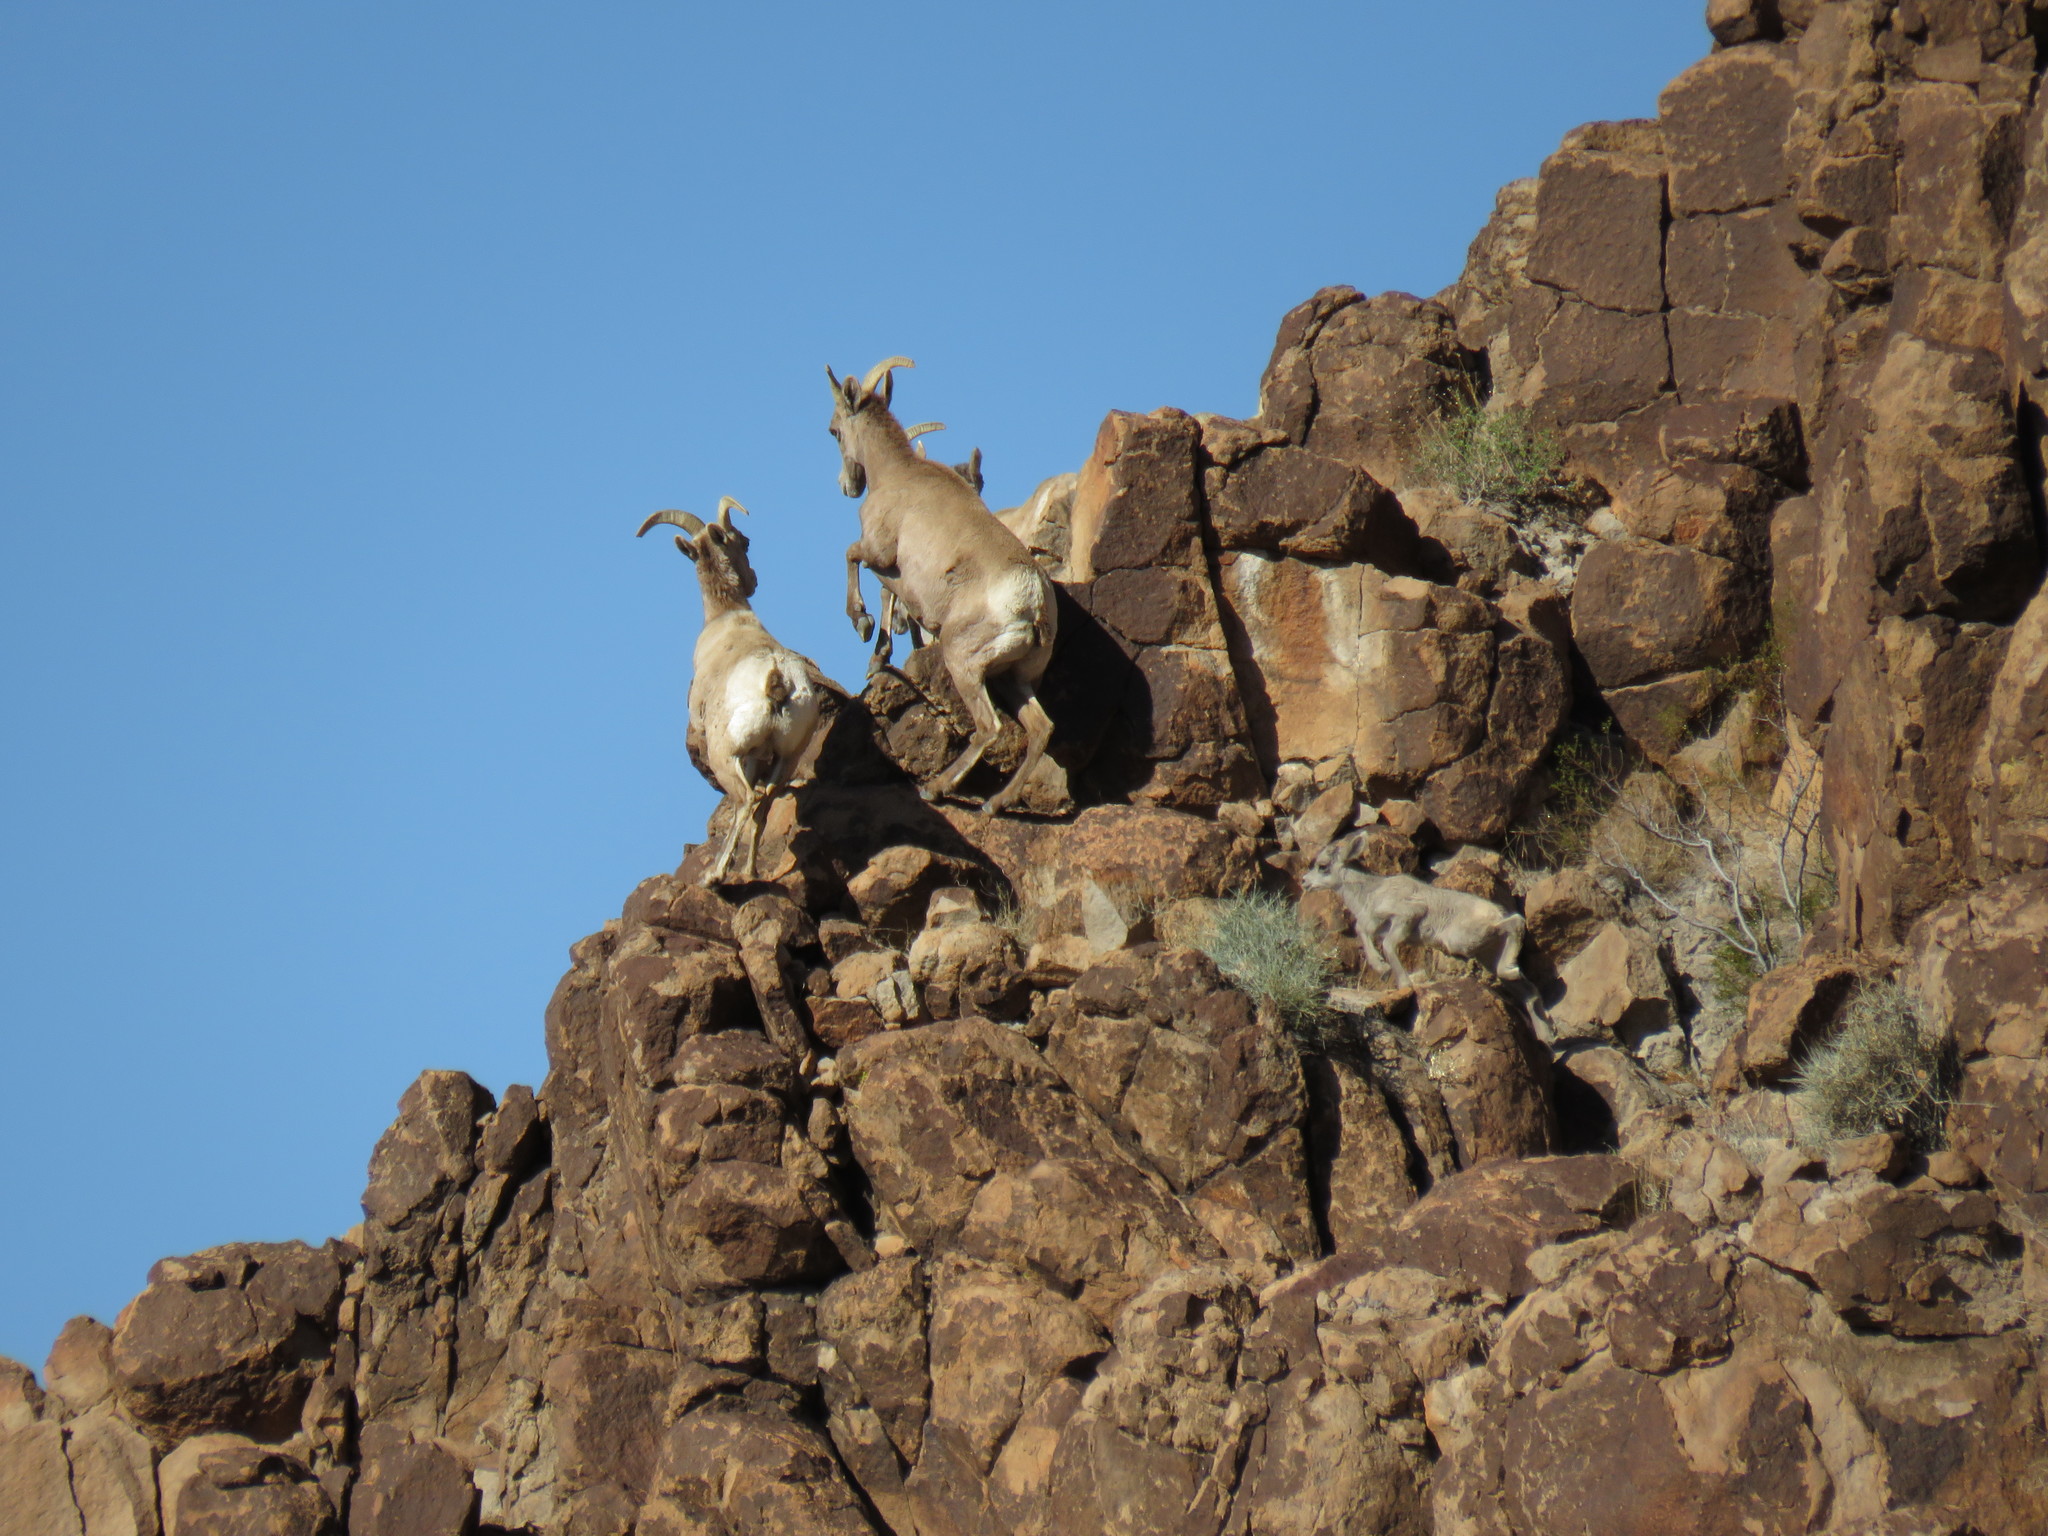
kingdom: Animalia
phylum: Chordata
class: Mammalia
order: Artiodactyla
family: Bovidae
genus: Ovis
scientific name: Ovis canadensis
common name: Bighorn sheep
